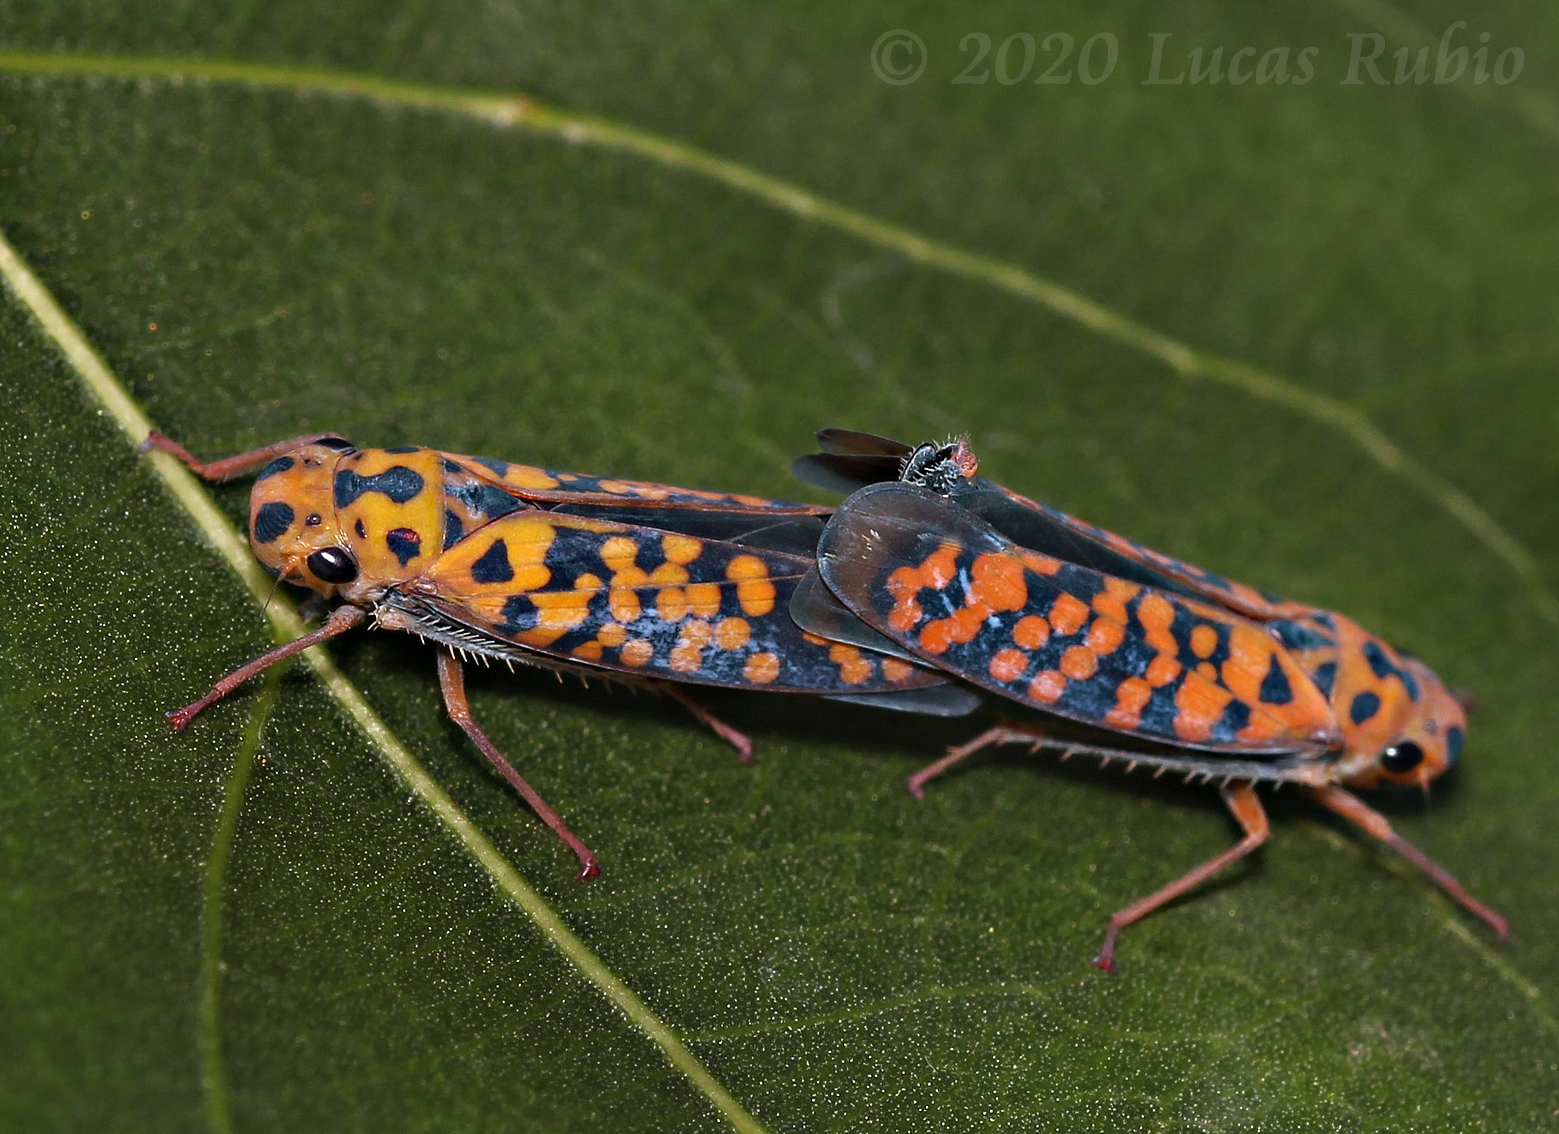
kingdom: Animalia
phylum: Arthropoda
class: Insecta
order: Hemiptera
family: Cicadellidae
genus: Pawiloma
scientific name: Pawiloma victima
